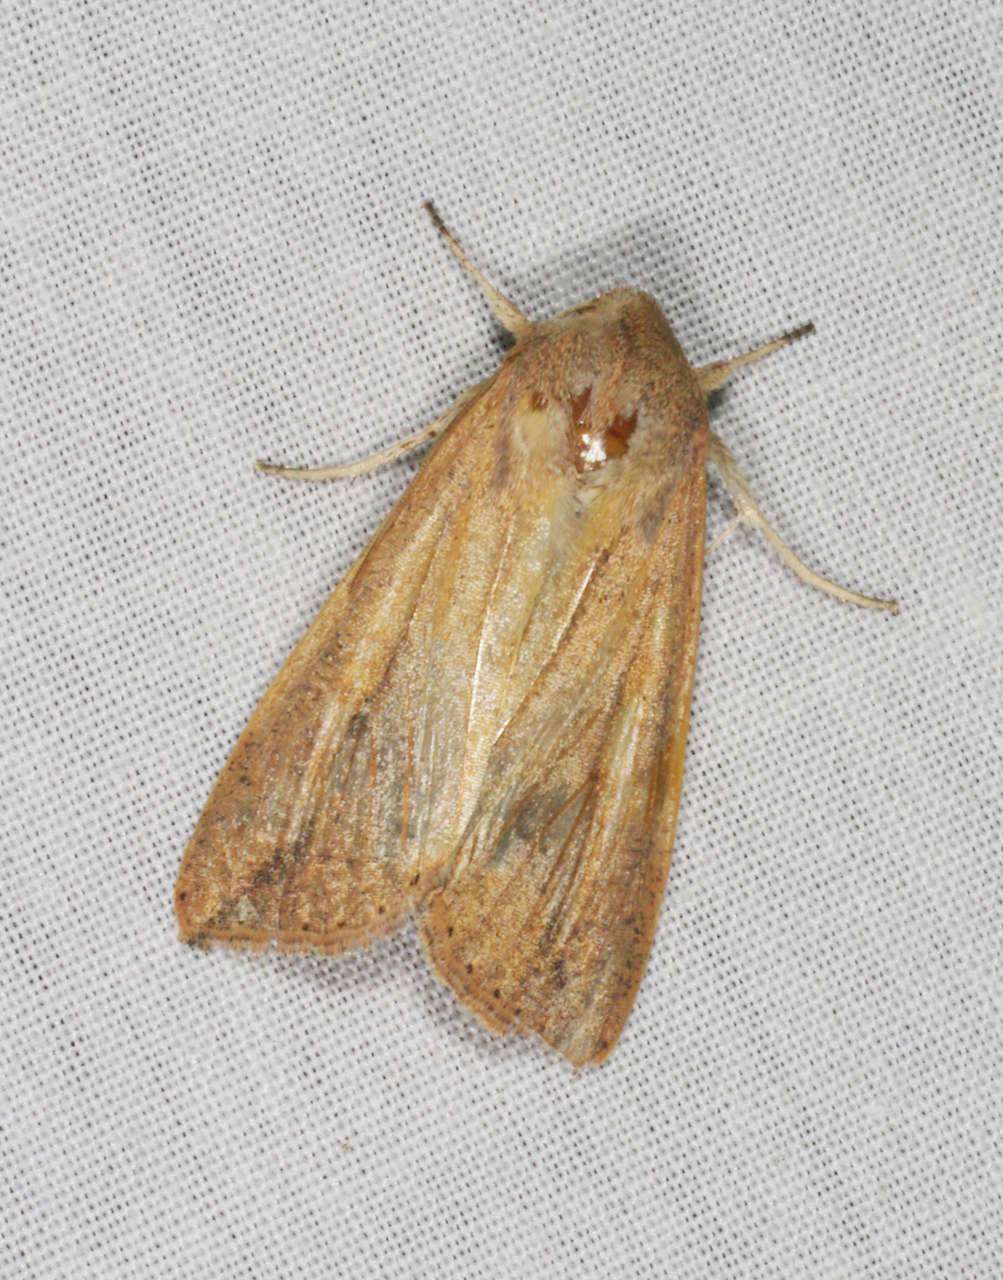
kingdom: Animalia
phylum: Arthropoda
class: Insecta
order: Lepidoptera
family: Noctuidae
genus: Mythimna
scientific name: Mythimna convecta
